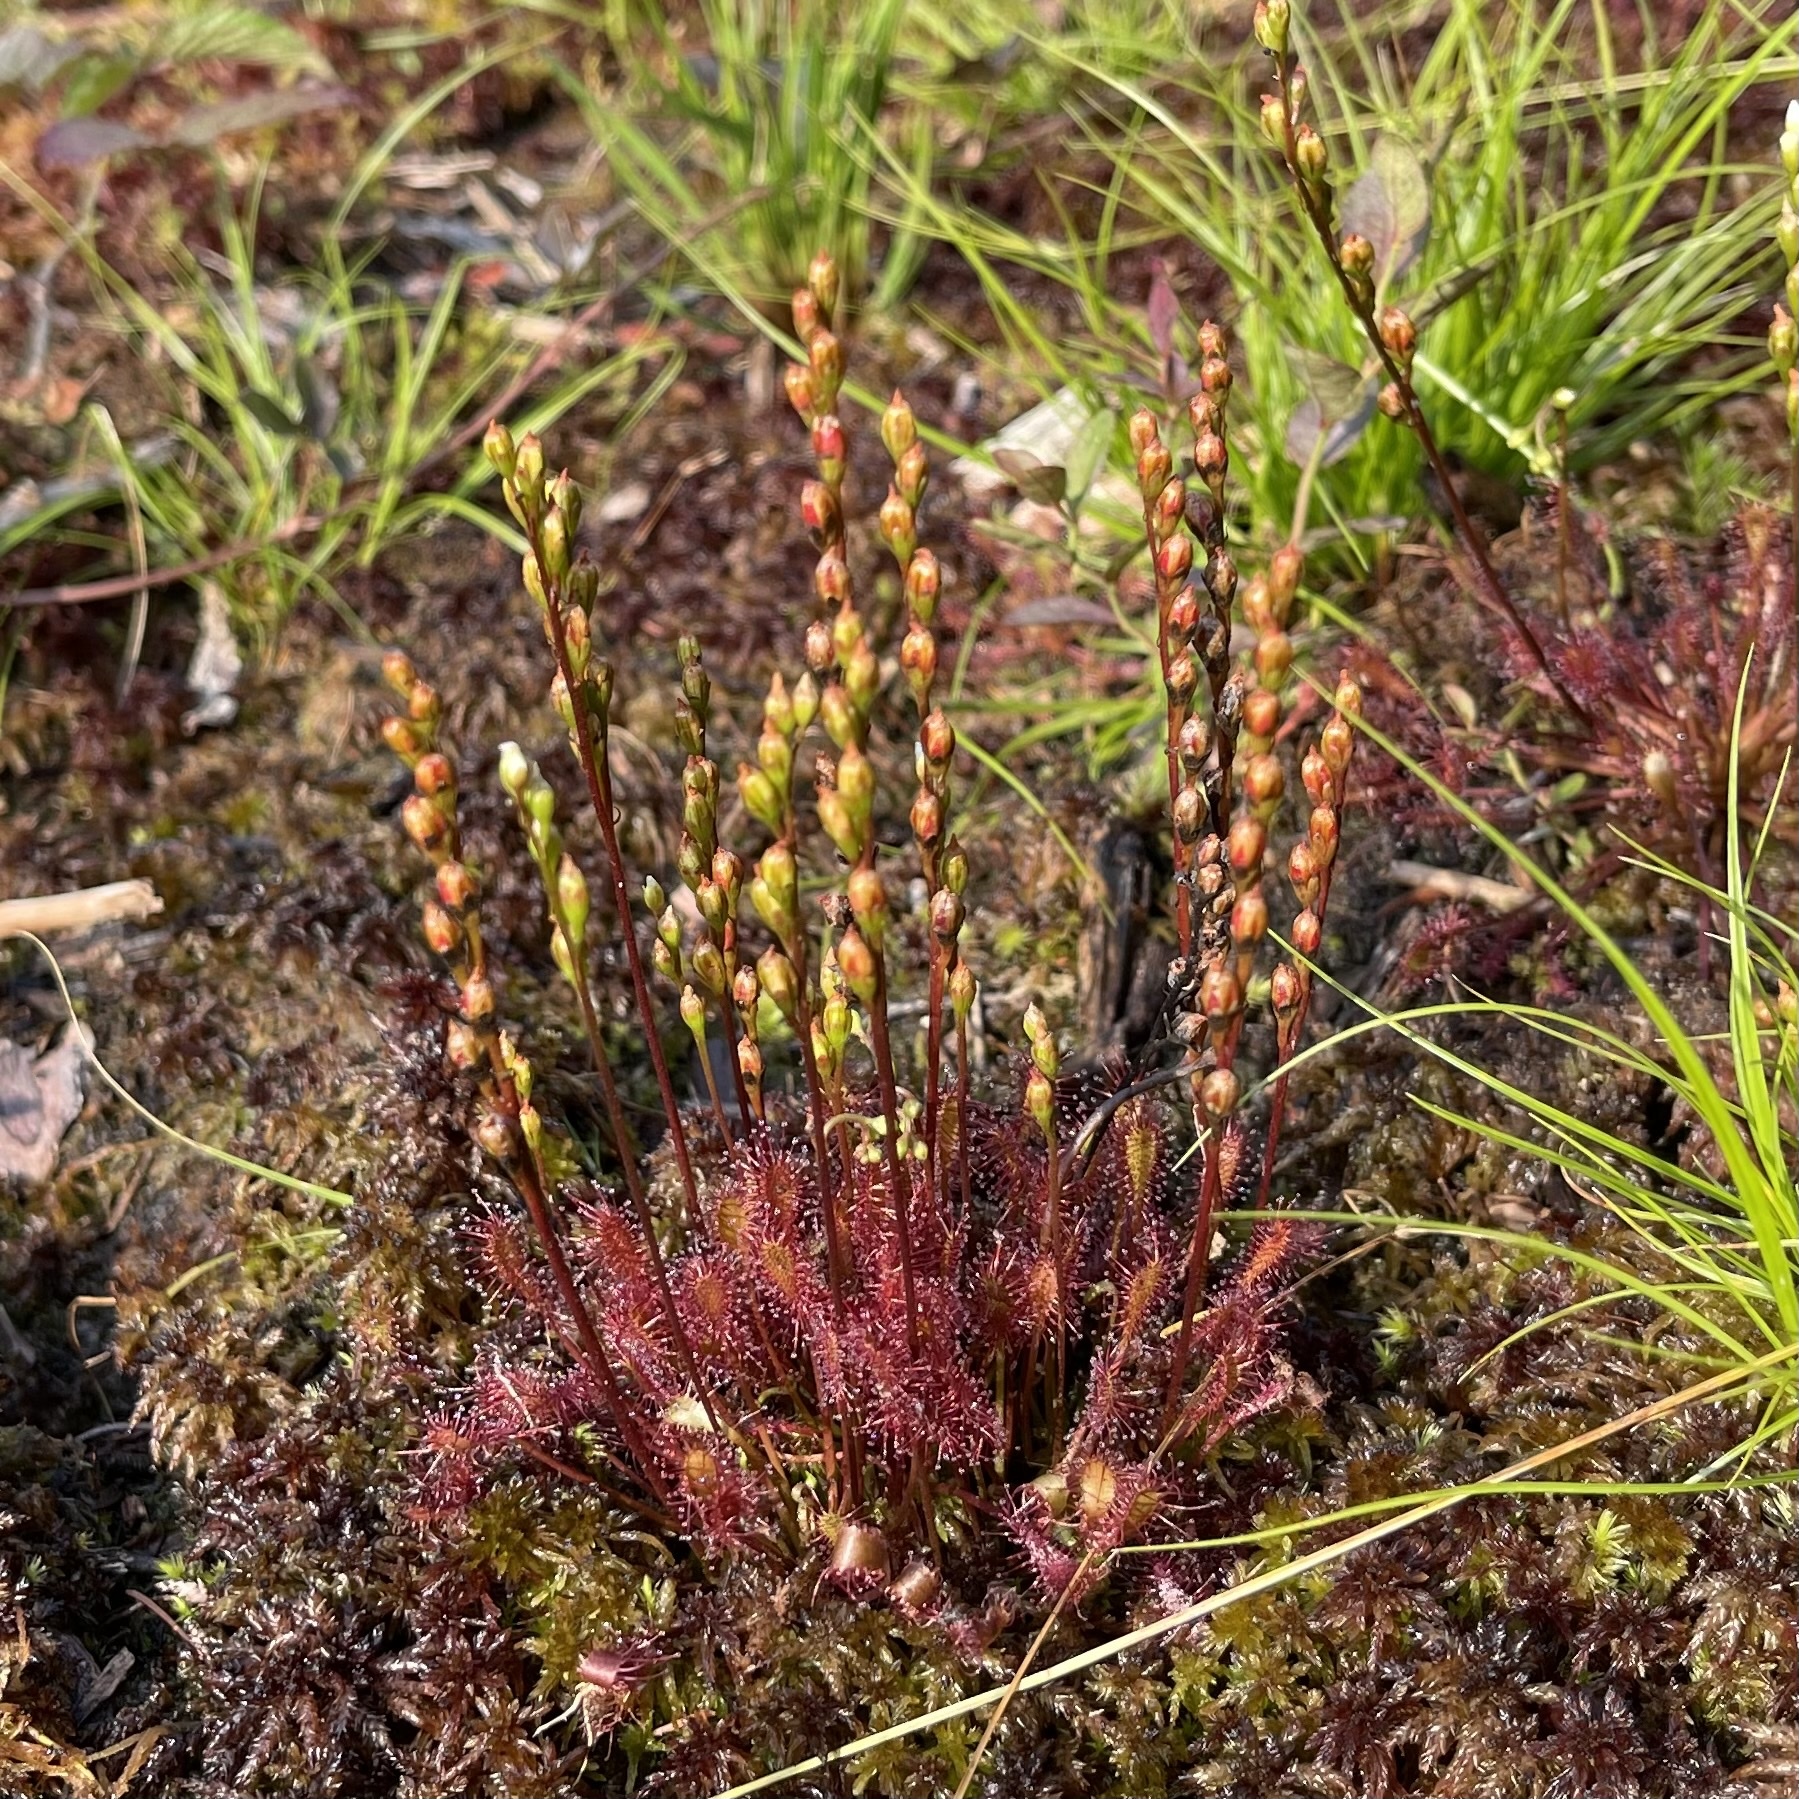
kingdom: Plantae
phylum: Tracheophyta
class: Magnoliopsida
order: Caryophyllales
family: Droseraceae
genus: Drosera
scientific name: Drosera intermedia
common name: Oblong-leaved sundew
